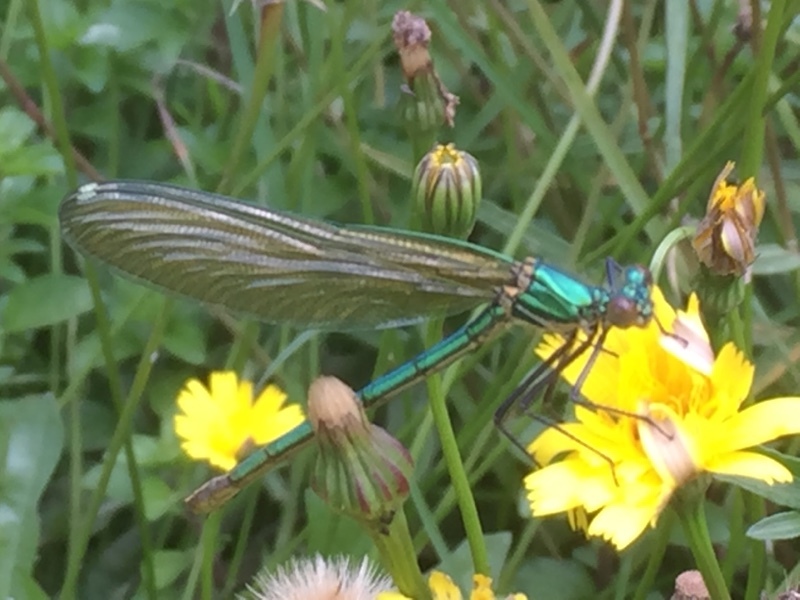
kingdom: Animalia
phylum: Arthropoda
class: Insecta
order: Odonata
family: Calopterygidae
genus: Calopteryx
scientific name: Calopteryx xanthostoma
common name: Western demoiselle
